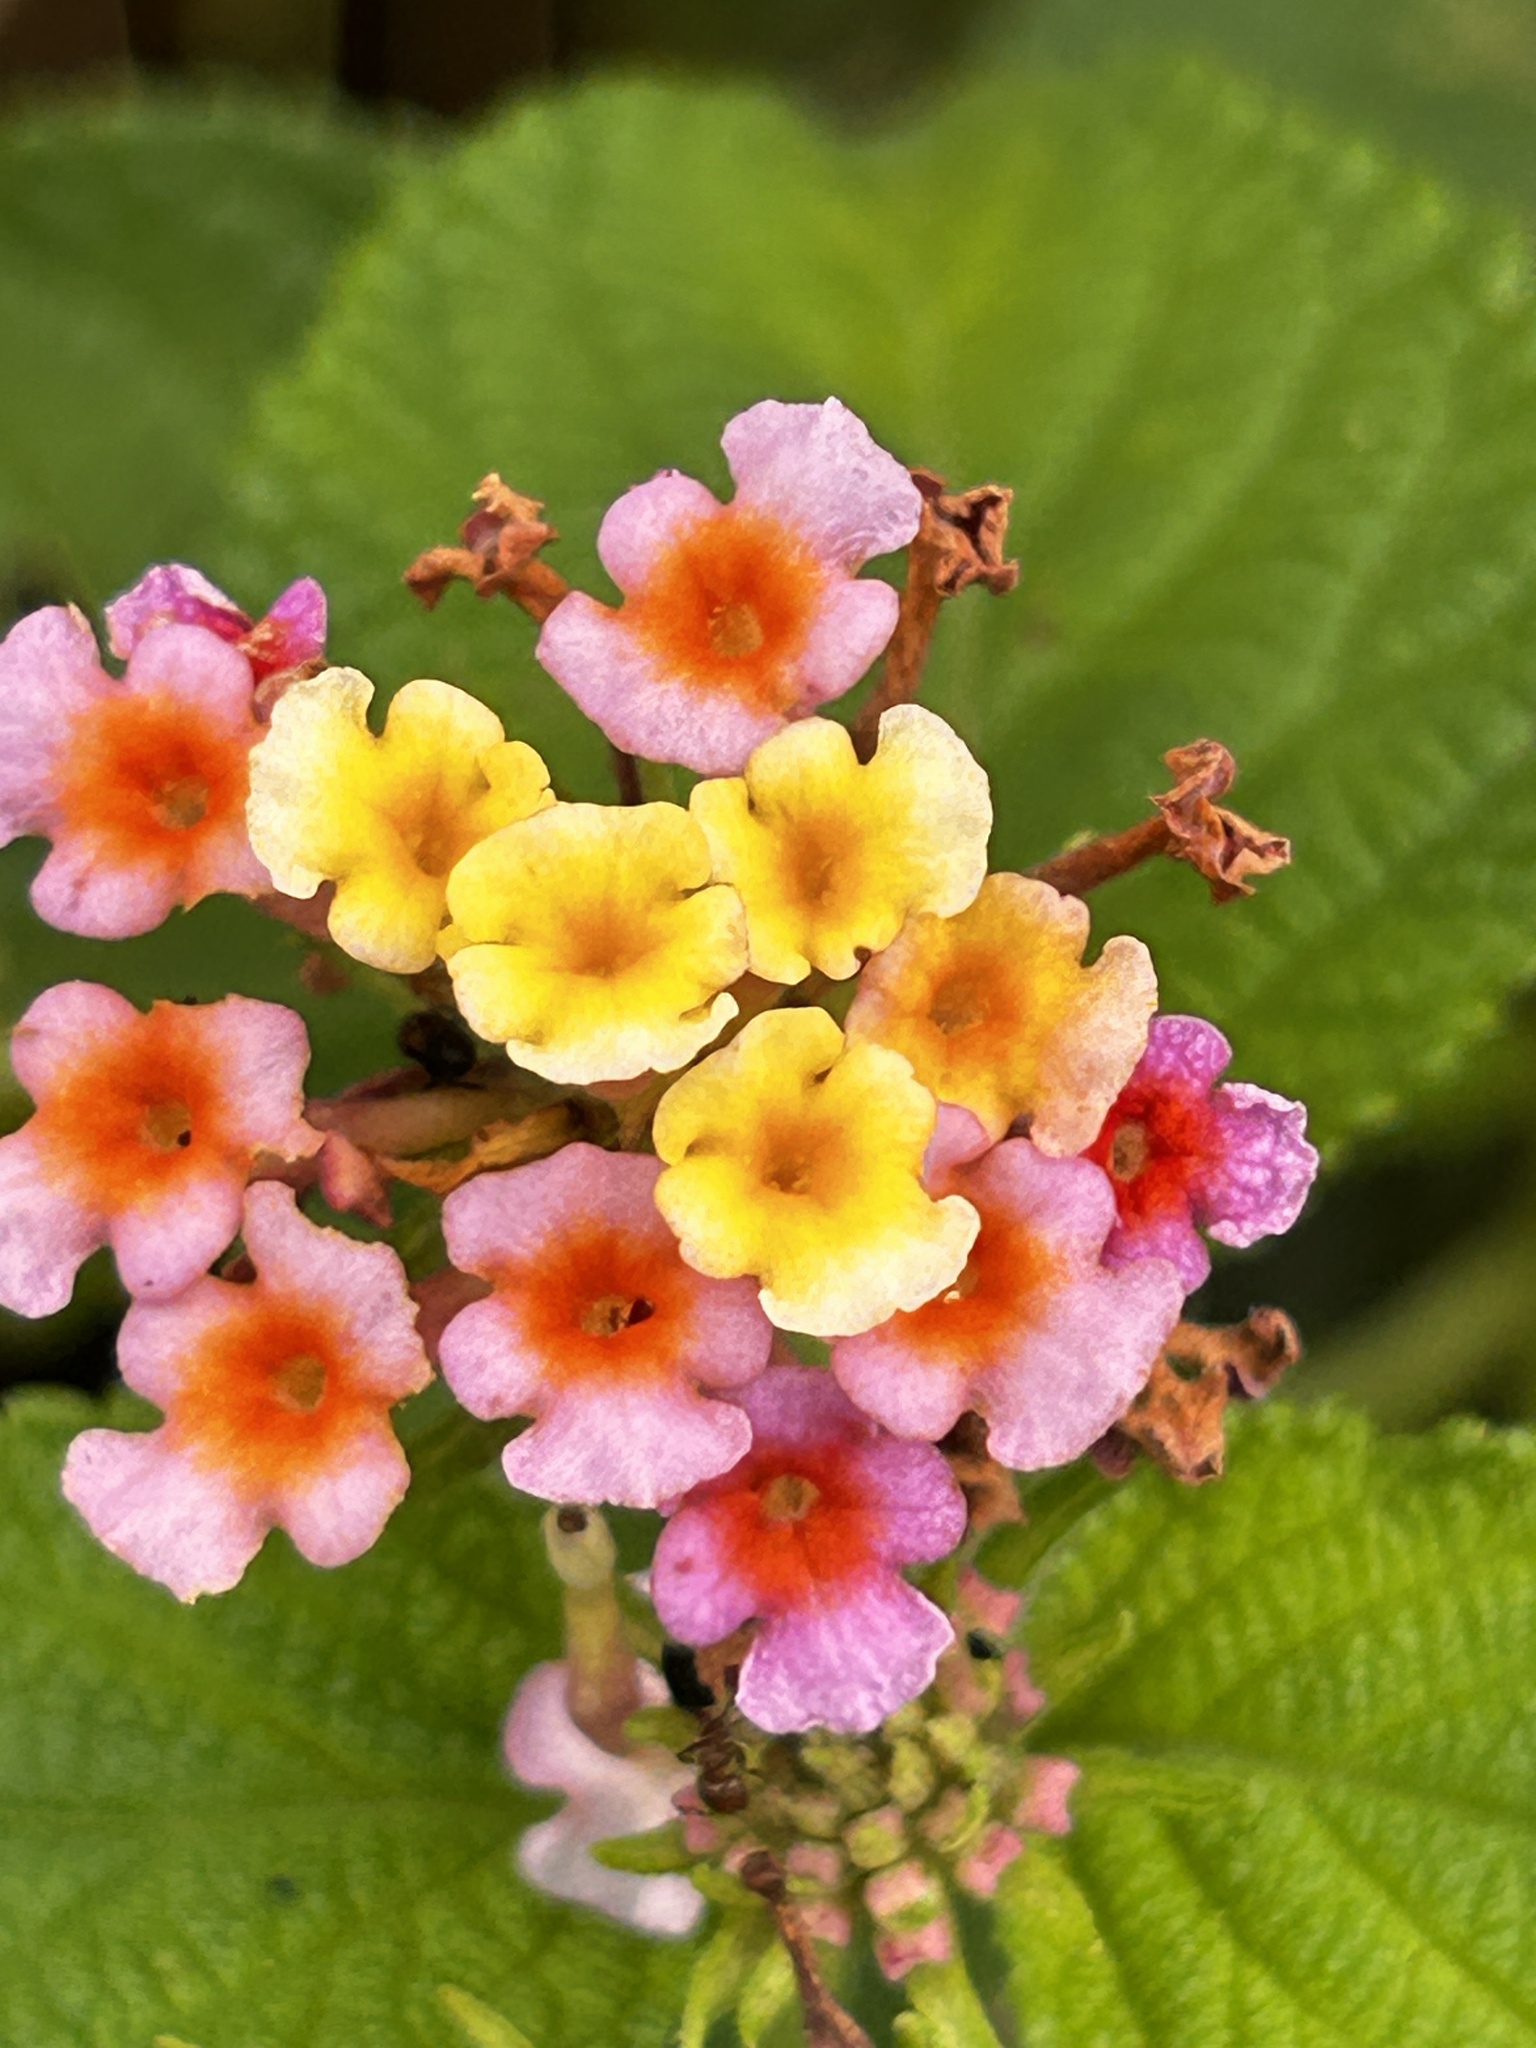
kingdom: Plantae
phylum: Tracheophyta
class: Magnoliopsida
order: Lamiales
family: Verbenaceae
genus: Lantana
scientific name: Lantana camara
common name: Lantana
